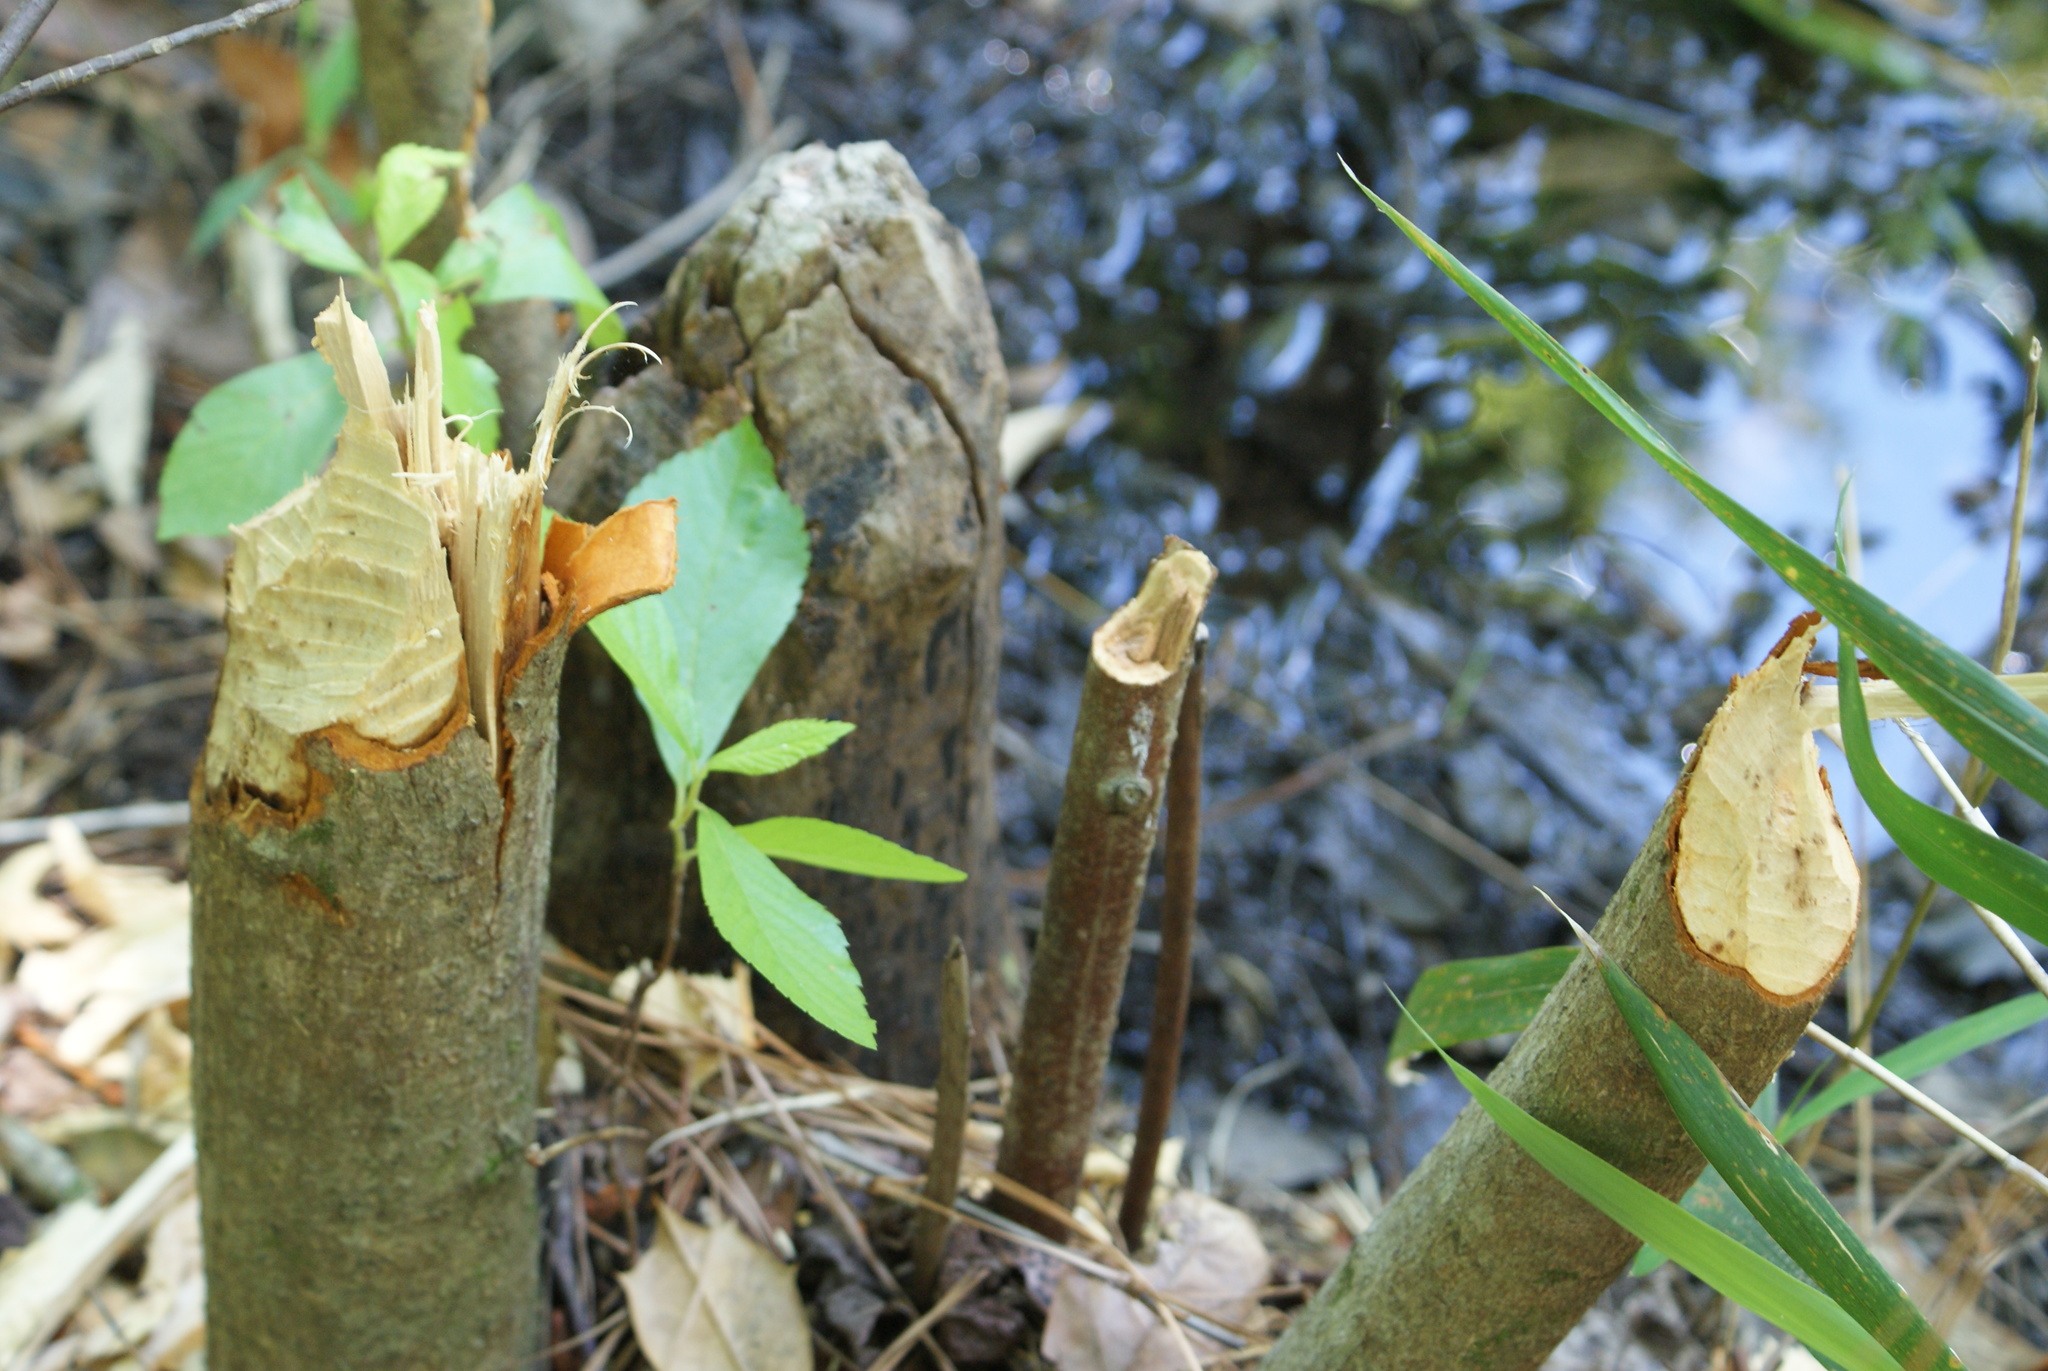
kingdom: Animalia
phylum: Chordata
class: Mammalia
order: Rodentia
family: Castoridae
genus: Castor
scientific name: Castor canadensis
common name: American beaver
